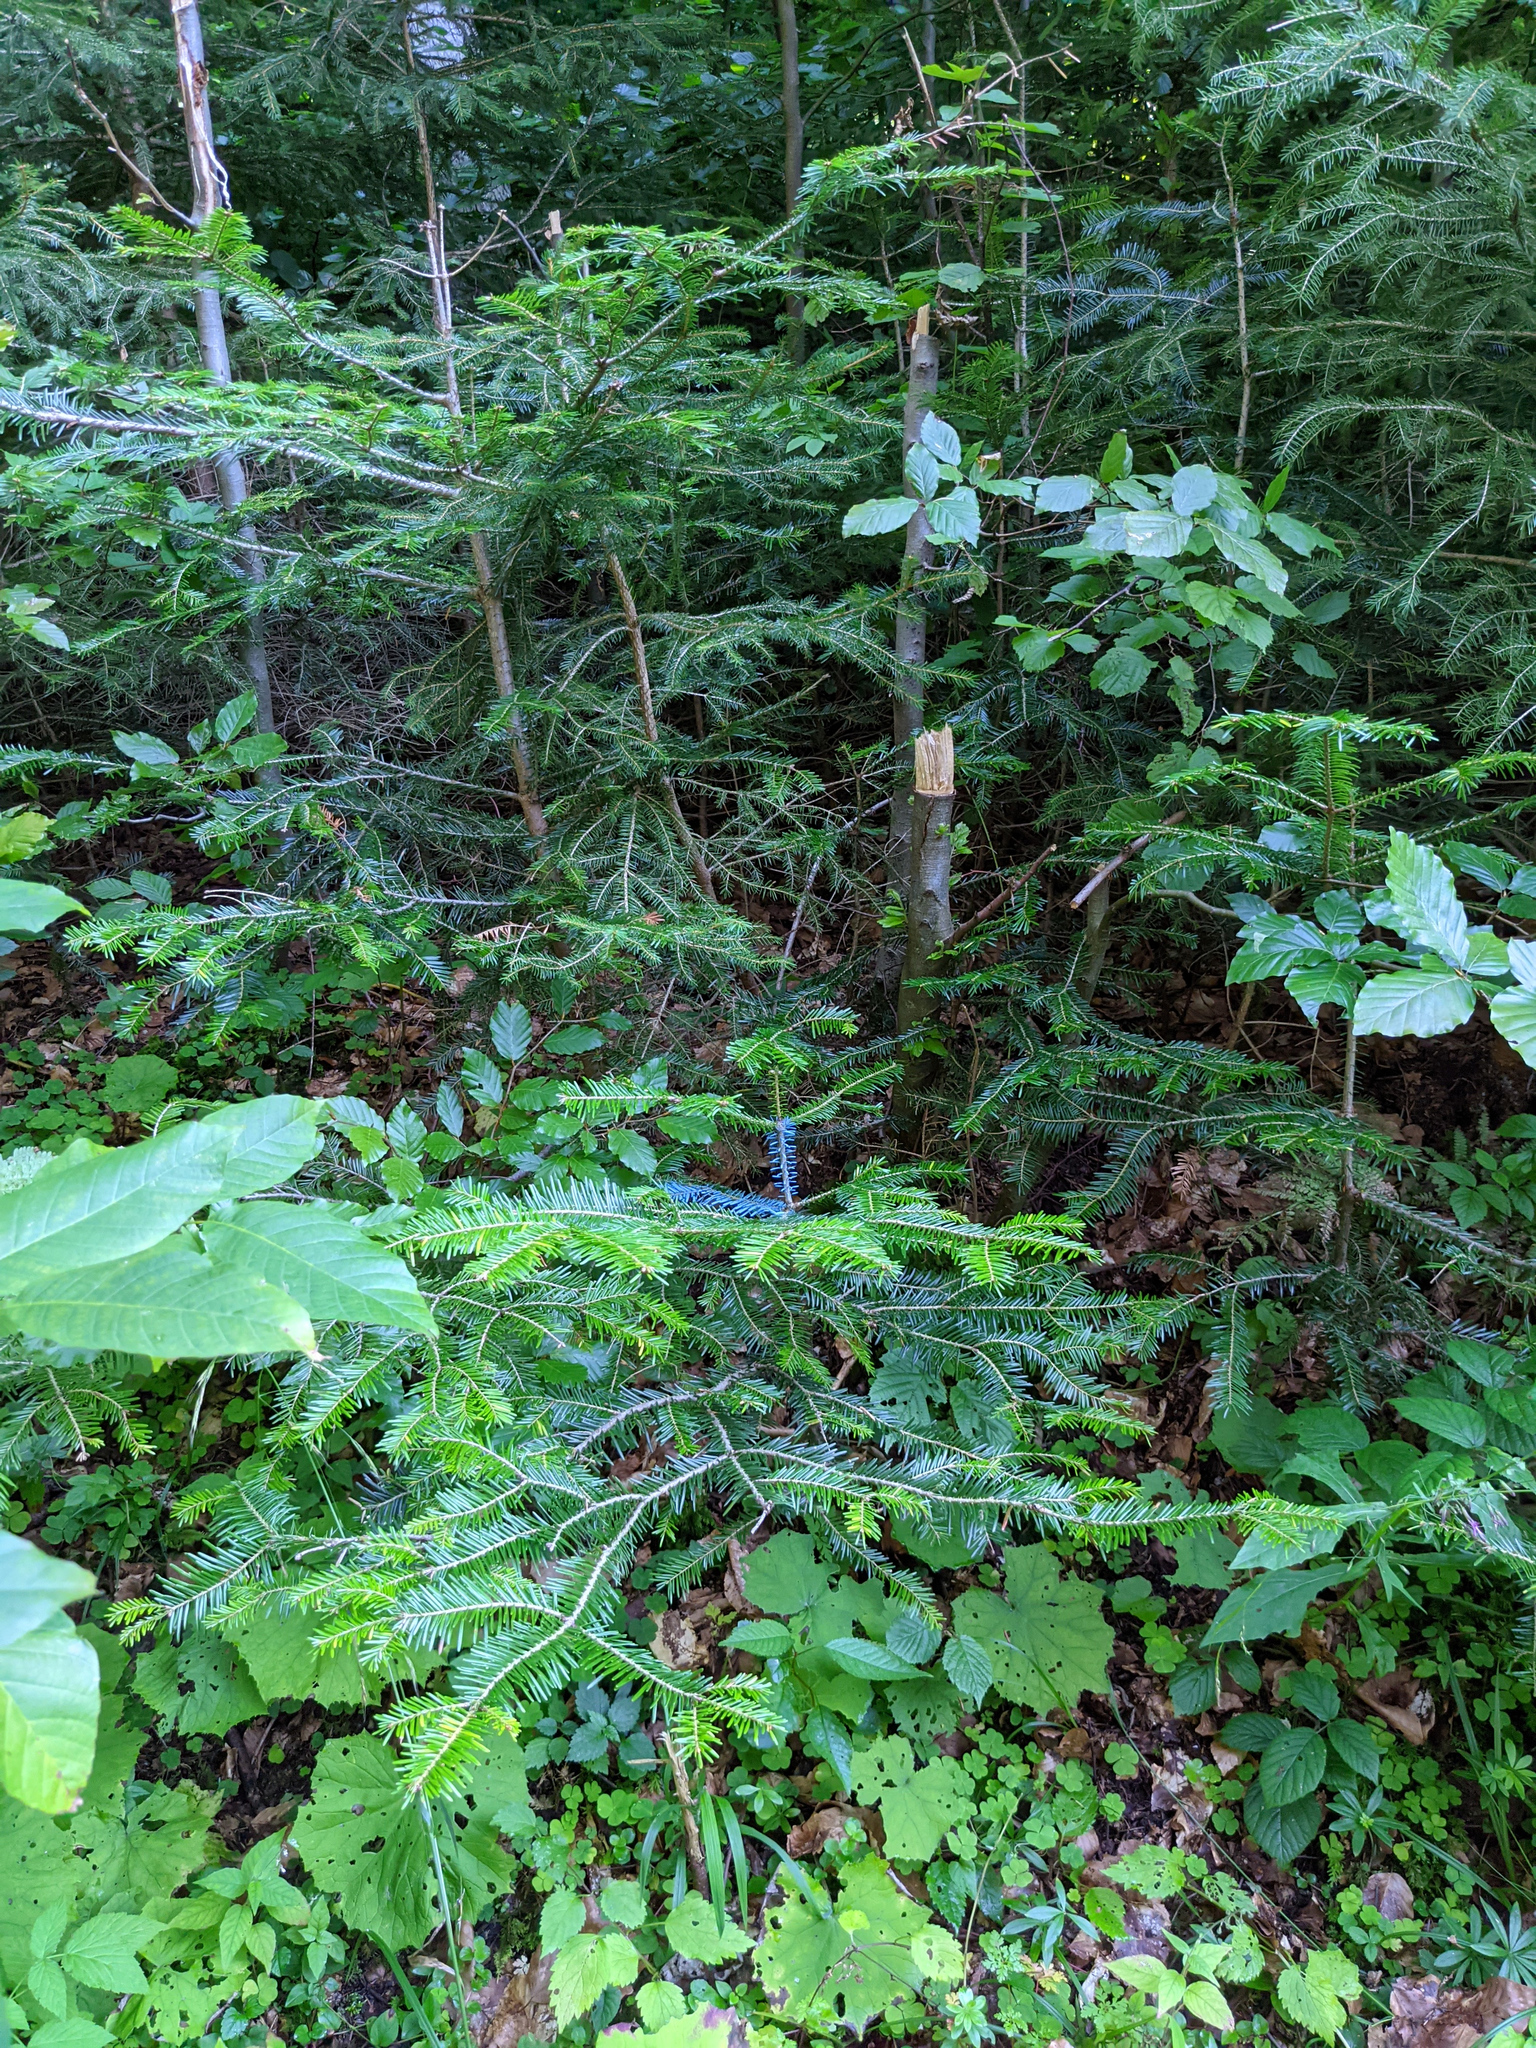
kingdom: Plantae
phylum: Tracheophyta
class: Pinopsida
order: Pinales
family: Pinaceae
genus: Abies
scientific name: Abies alba
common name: Silver fir
